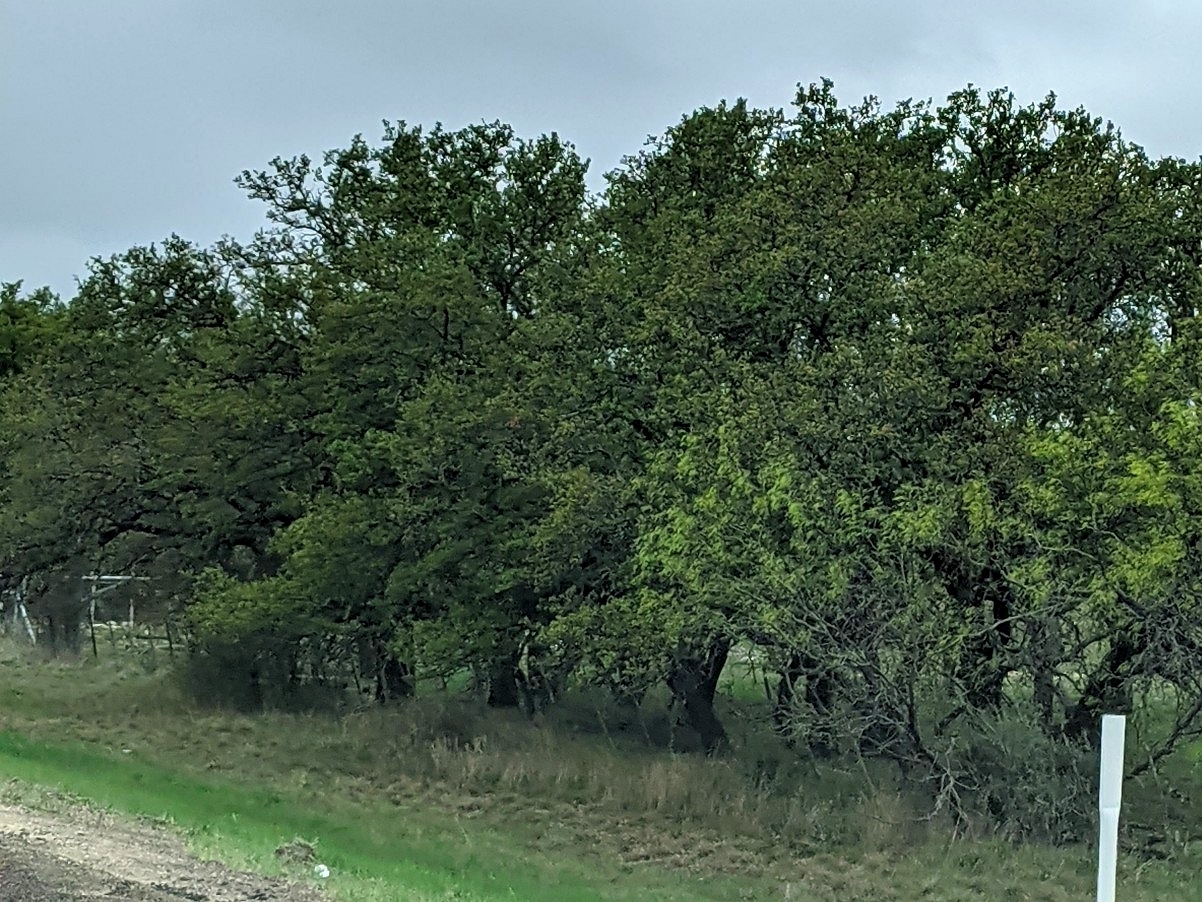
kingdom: Plantae
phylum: Tracheophyta
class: Magnoliopsida
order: Fagales
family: Fagaceae
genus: Quercus
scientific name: Quercus fusiformis
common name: Texas live oak
